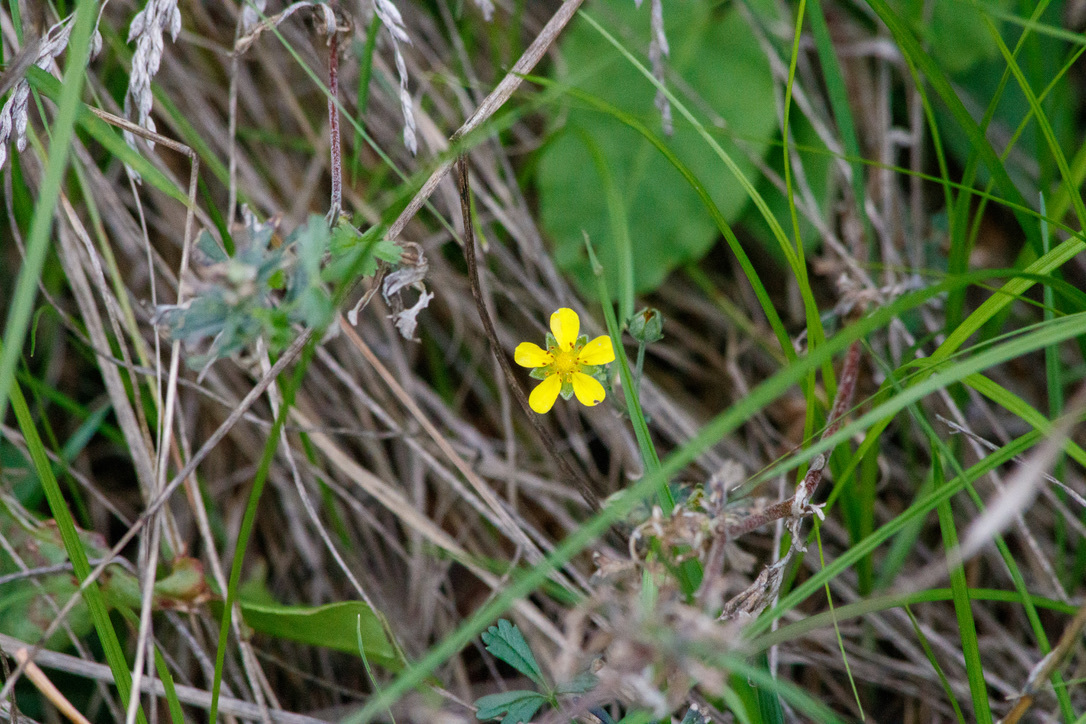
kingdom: Plantae
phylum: Tracheophyta
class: Magnoliopsida
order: Rosales
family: Rosaceae
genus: Potentilla
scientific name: Potentilla argentea
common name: Hoary cinquefoil
